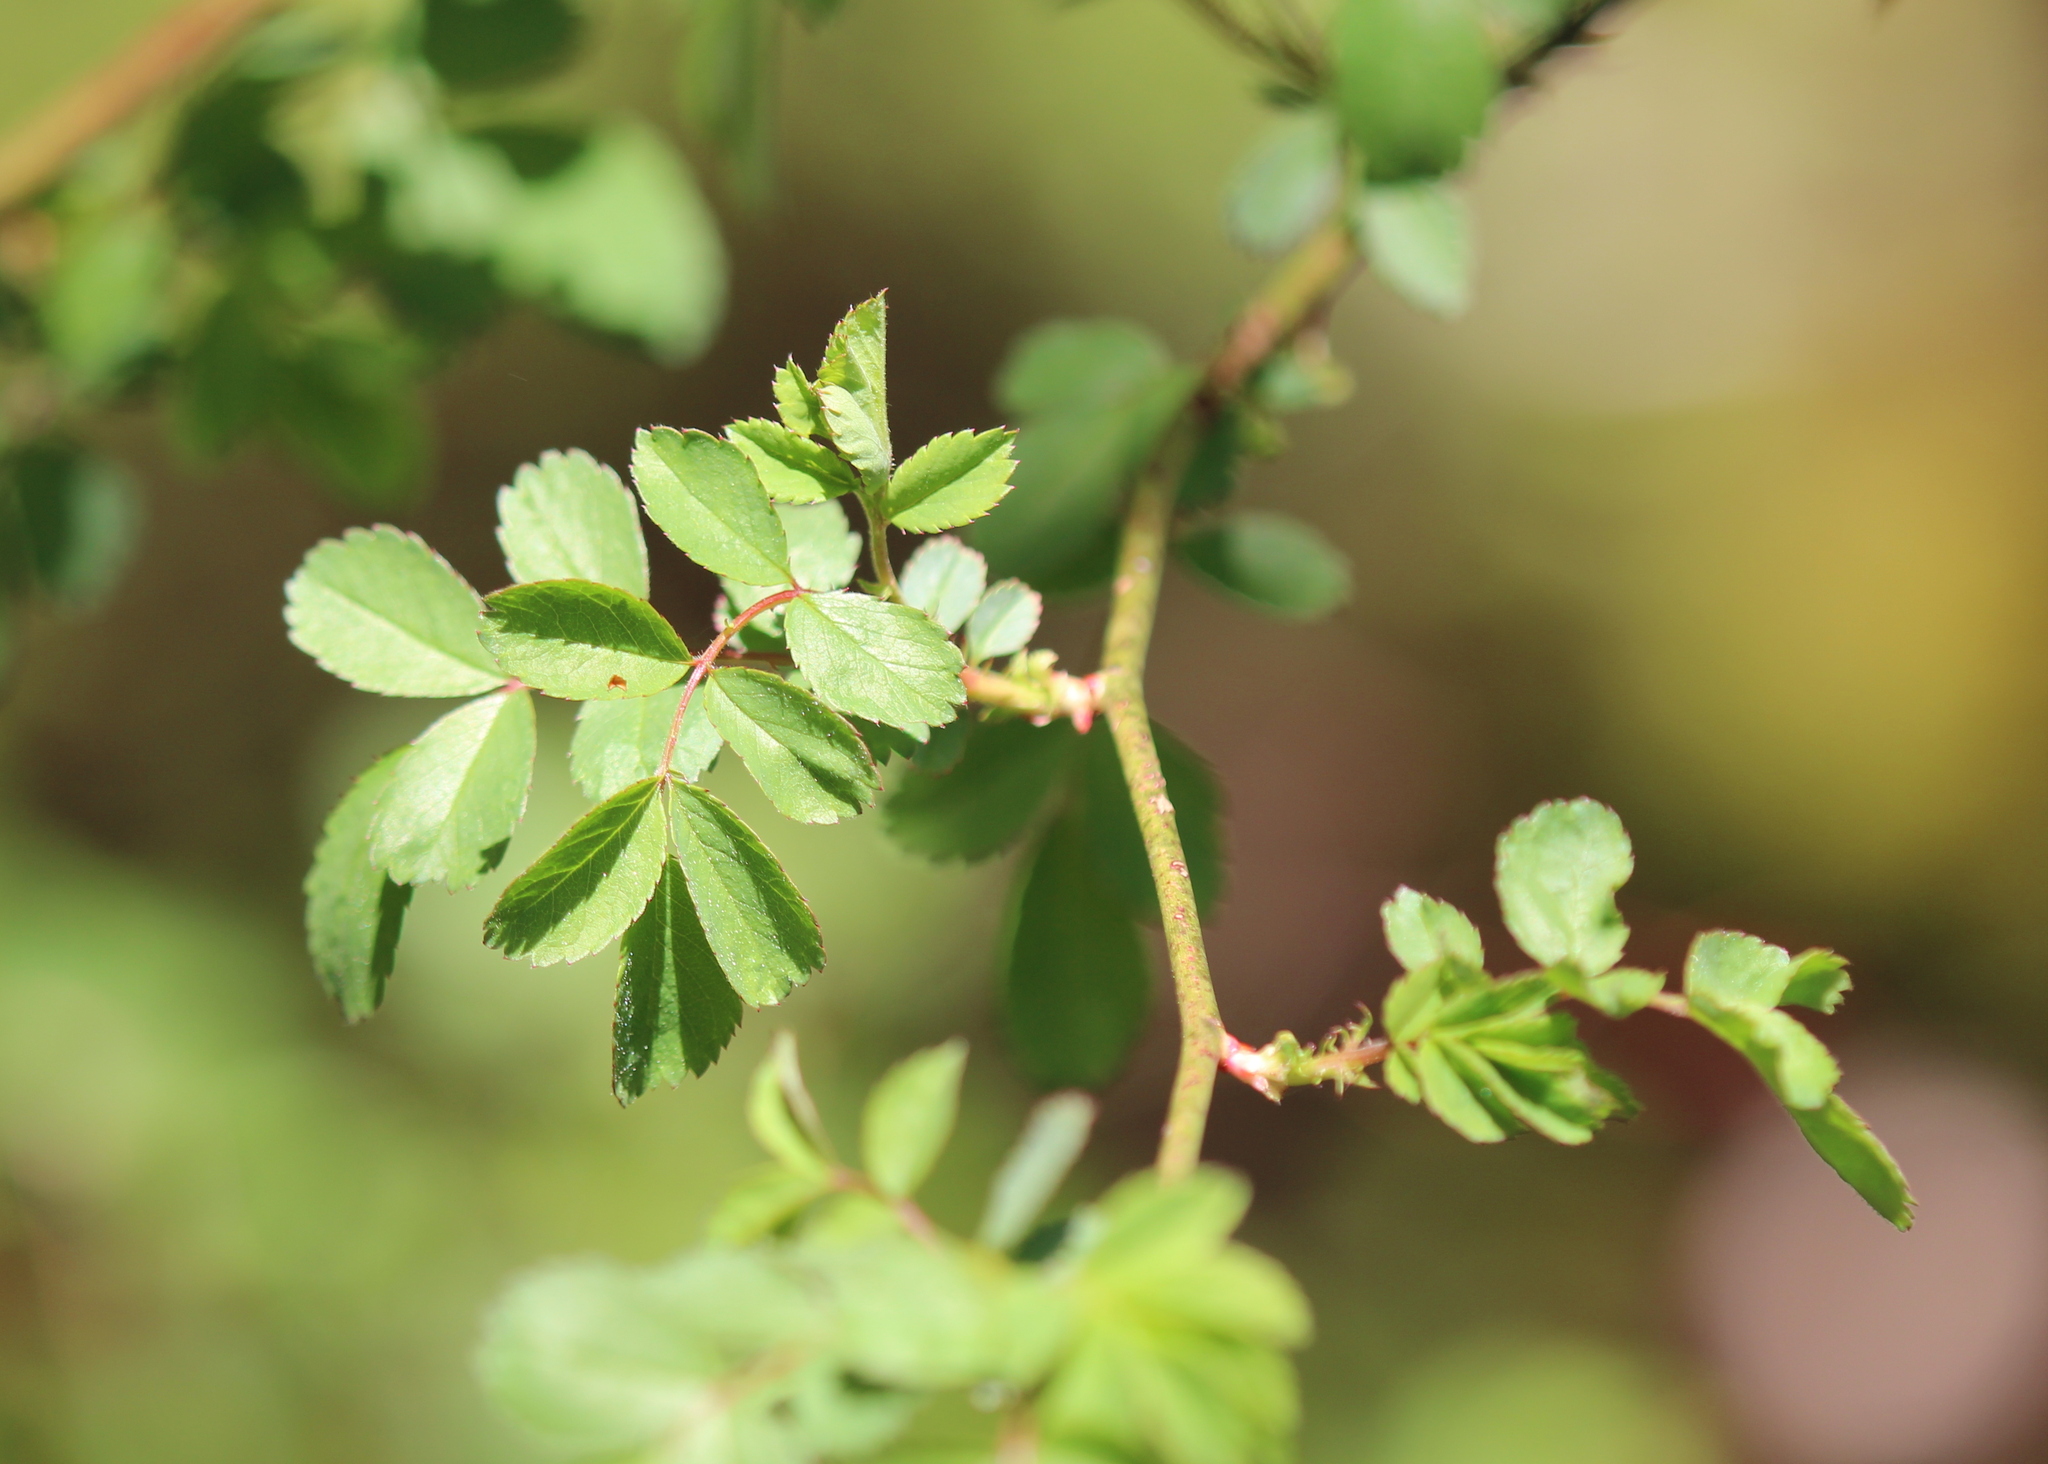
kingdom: Plantae
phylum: Tracheophyta
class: Magnoliopsida
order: Rosales
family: Rosaceae
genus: Rosa
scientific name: Rosa multiflora
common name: Multiflora rose
